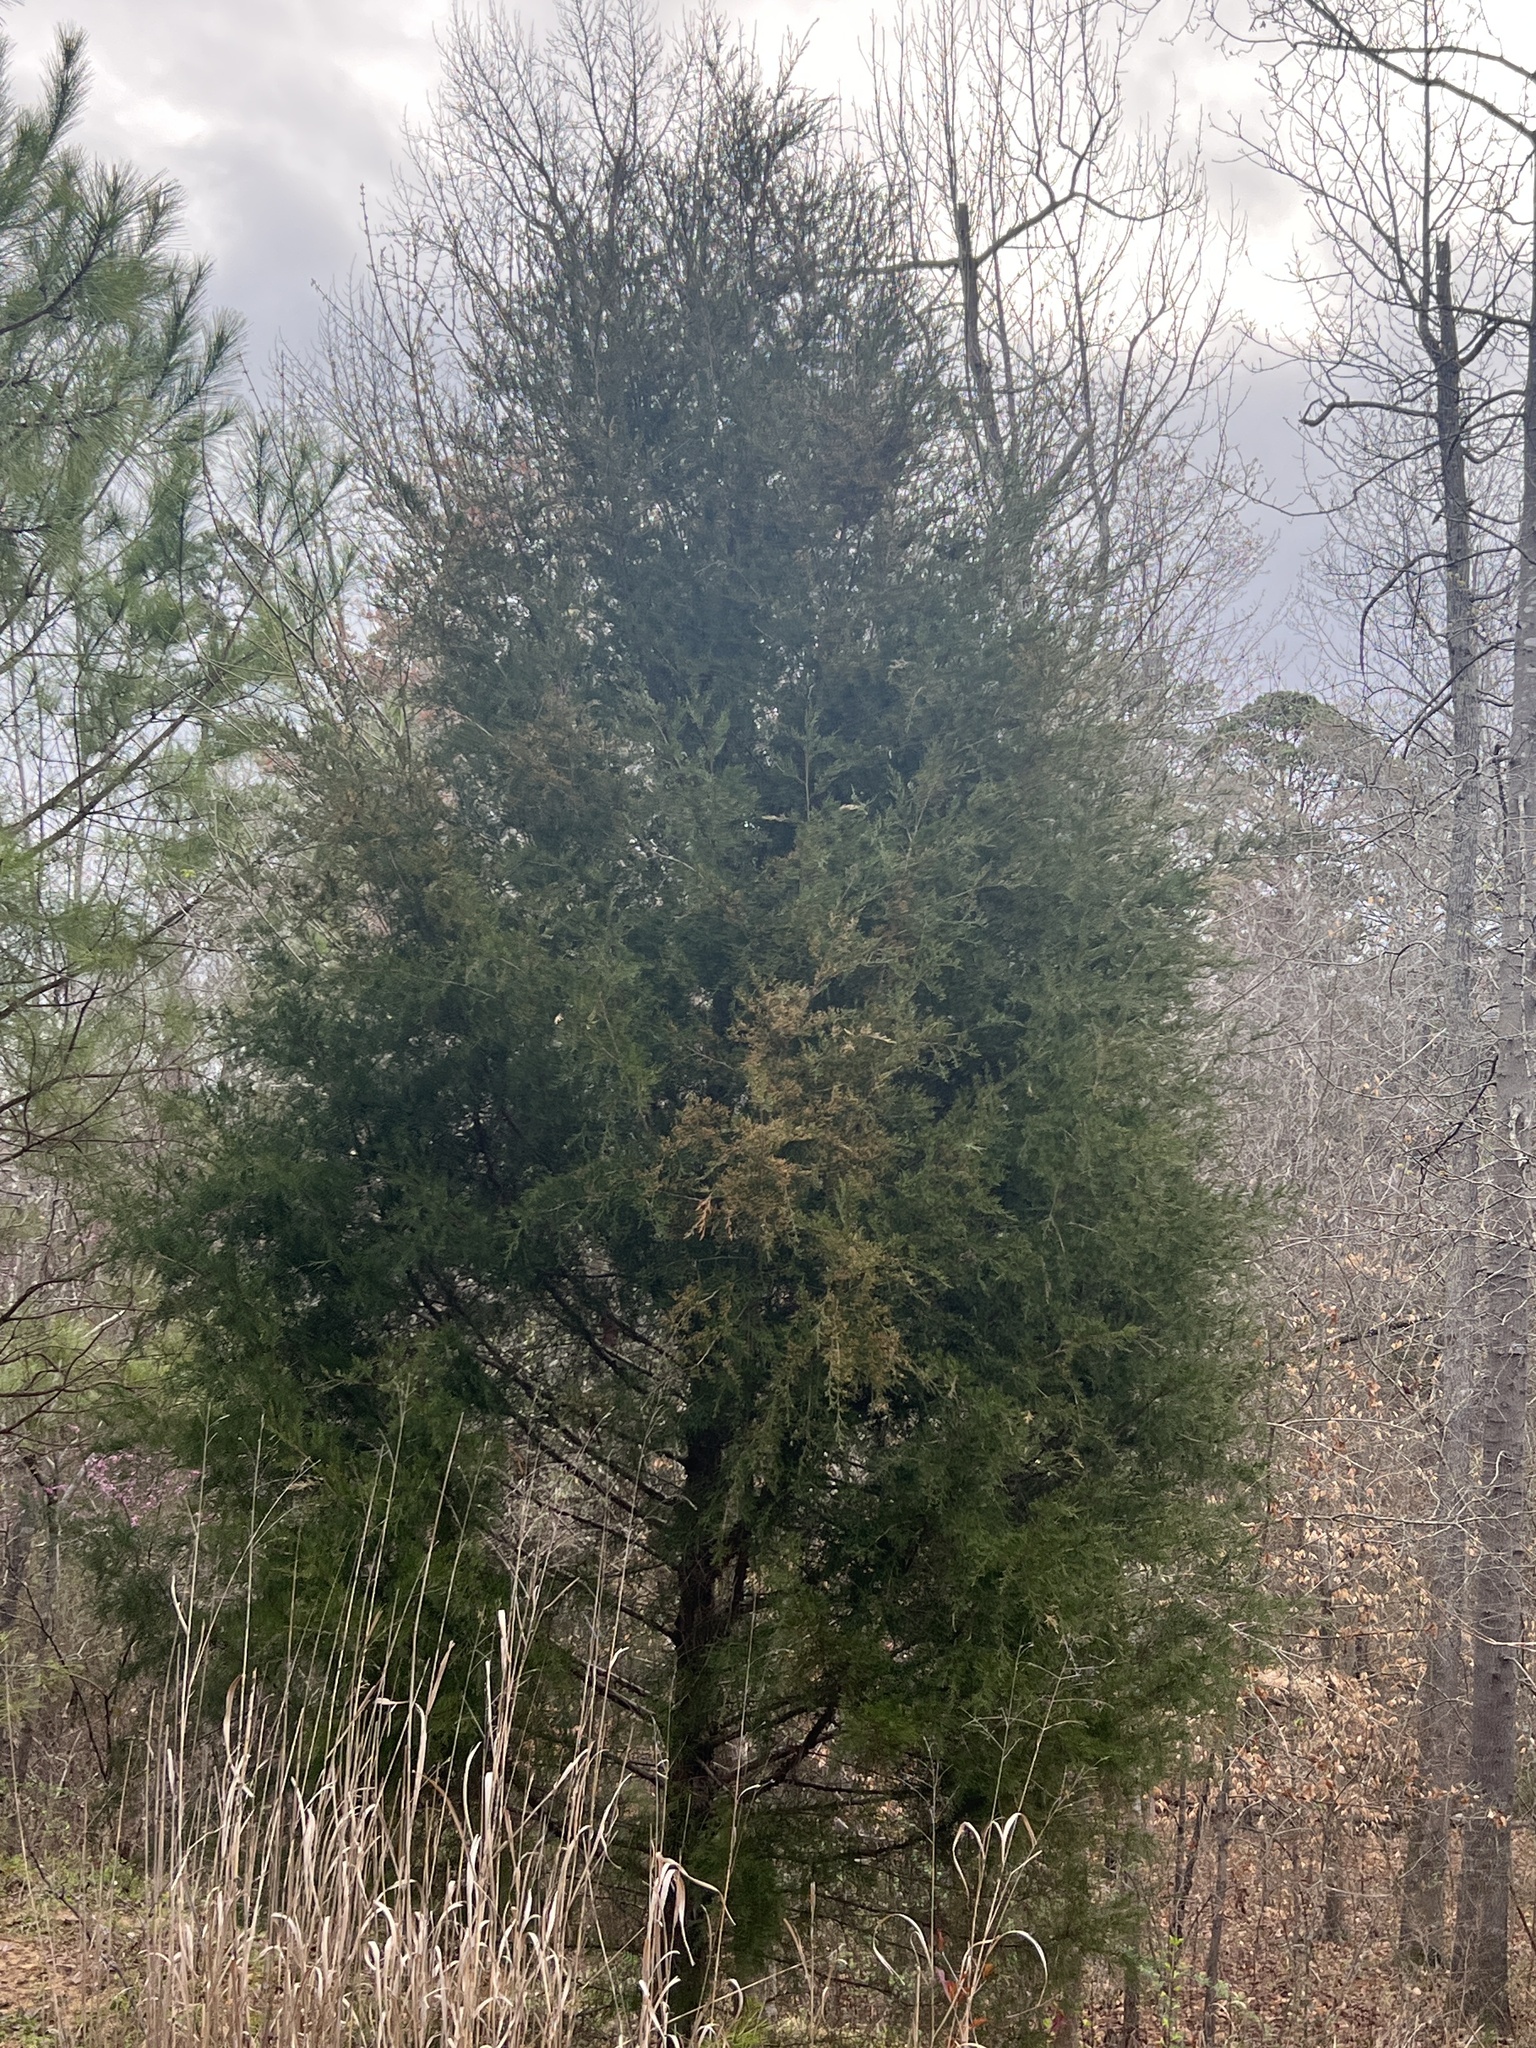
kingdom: Plantae
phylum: Tracheophyta
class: Pinopsida
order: Pinales
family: Cupressaceae
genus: Juniperus
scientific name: Juniperus virginiana
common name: Red juniper
